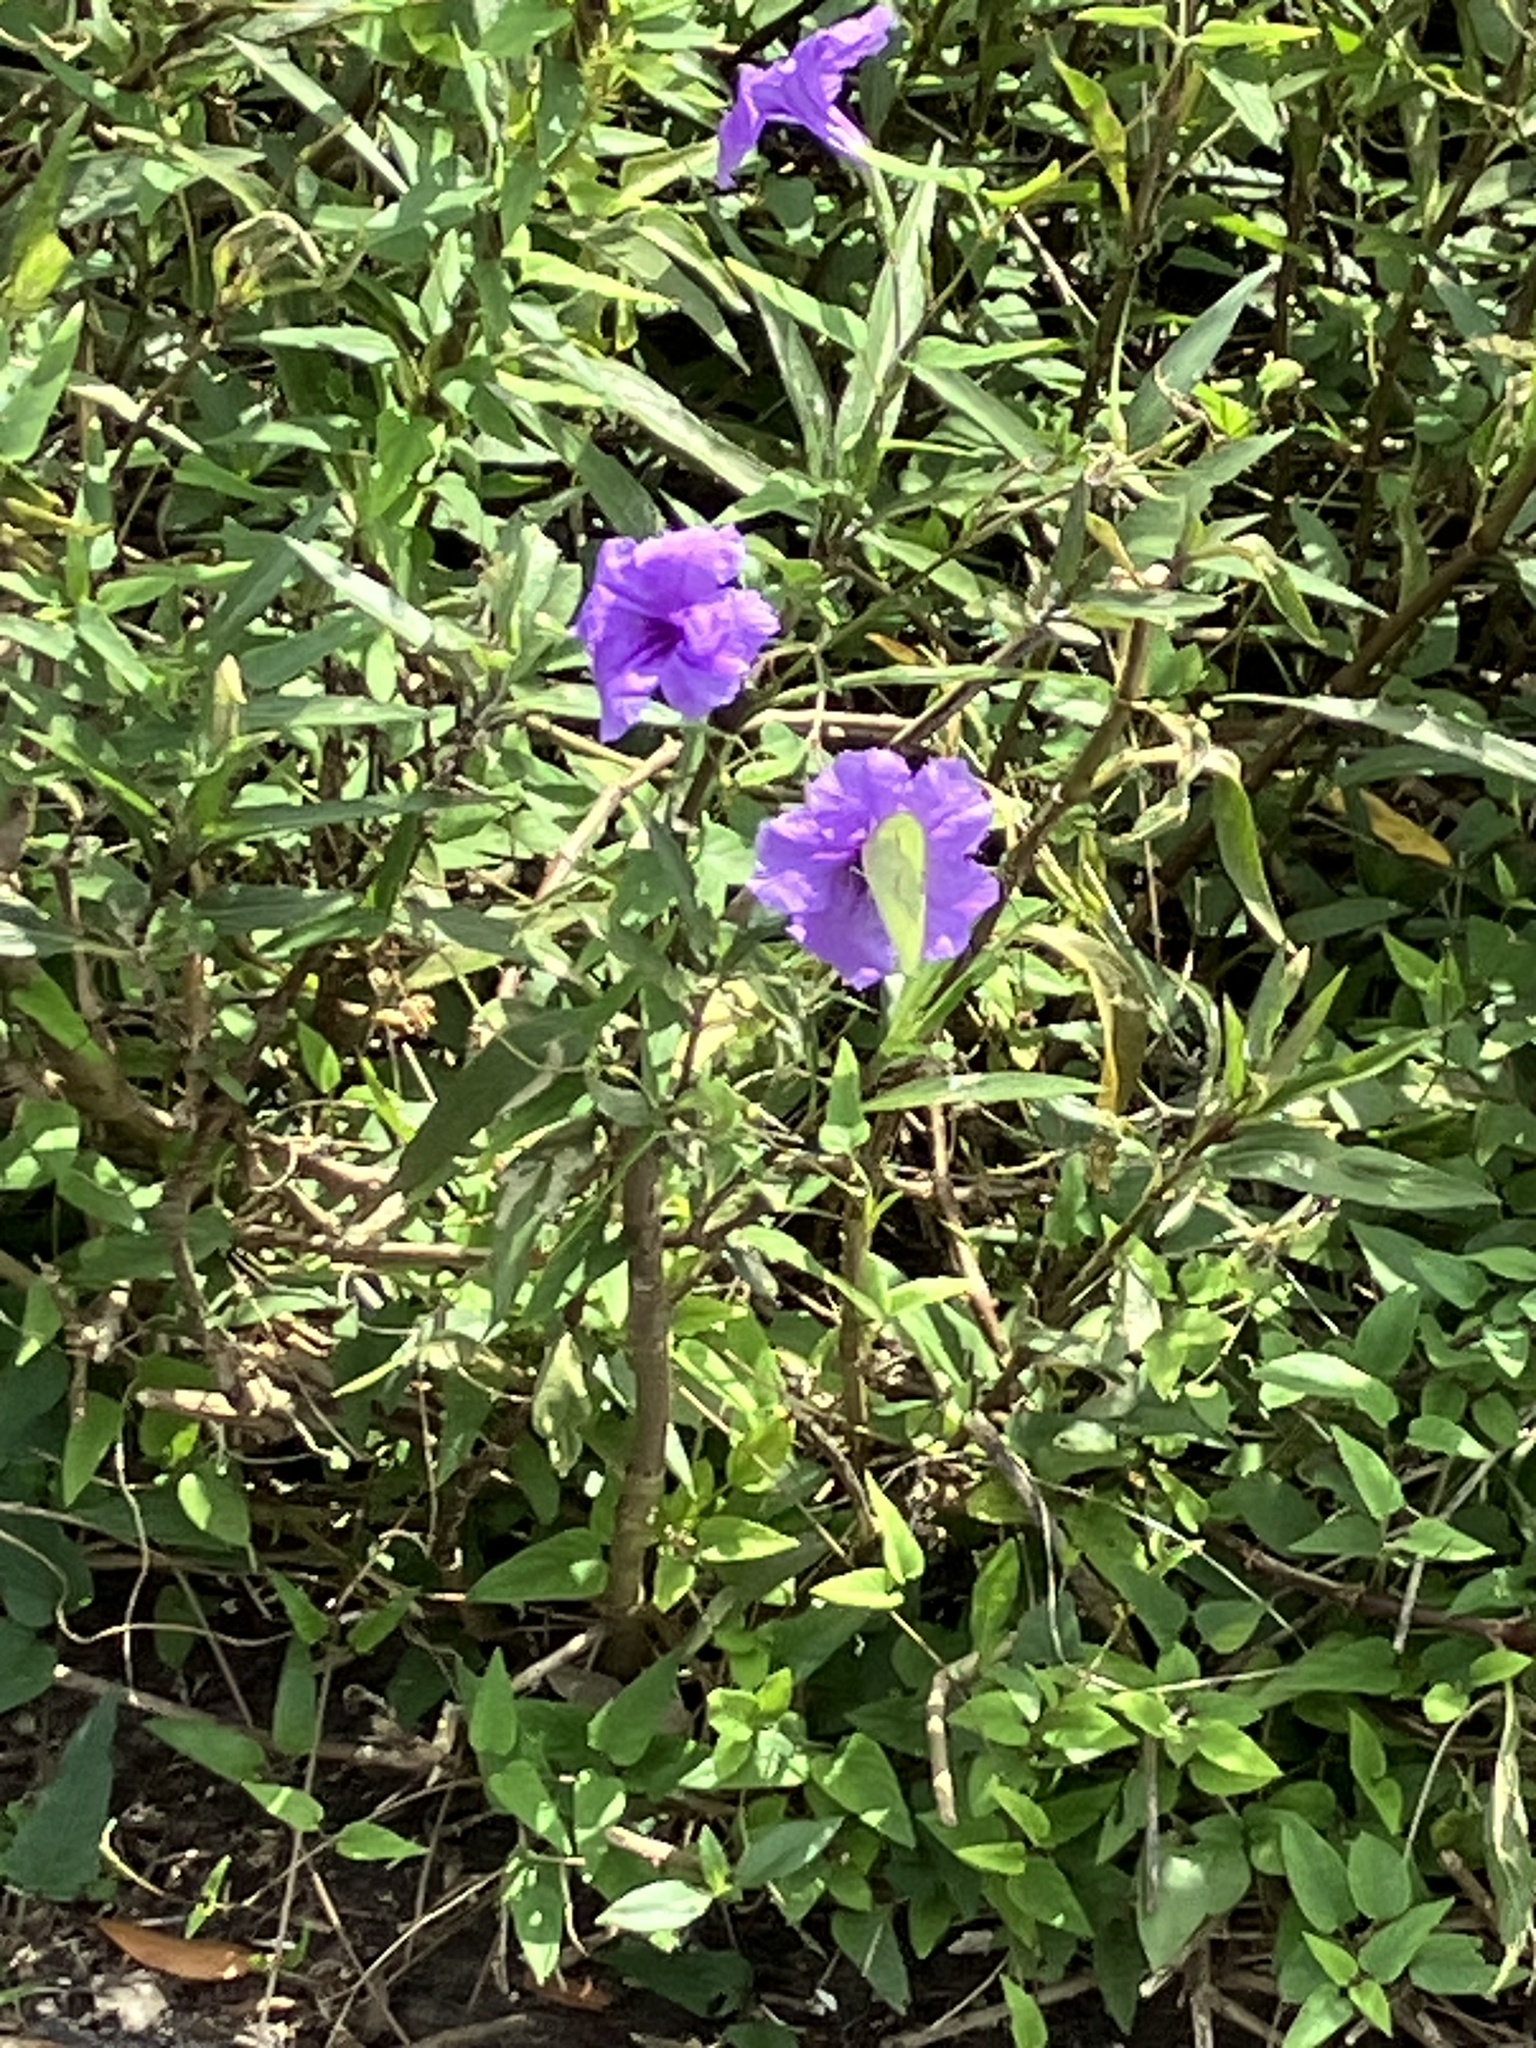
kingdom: Animalia
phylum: Arthropoda
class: Insecta
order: Lepidoptera
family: Pieridae
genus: Phoebis
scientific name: Phoebis sennae
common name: Cloudless sulphur
